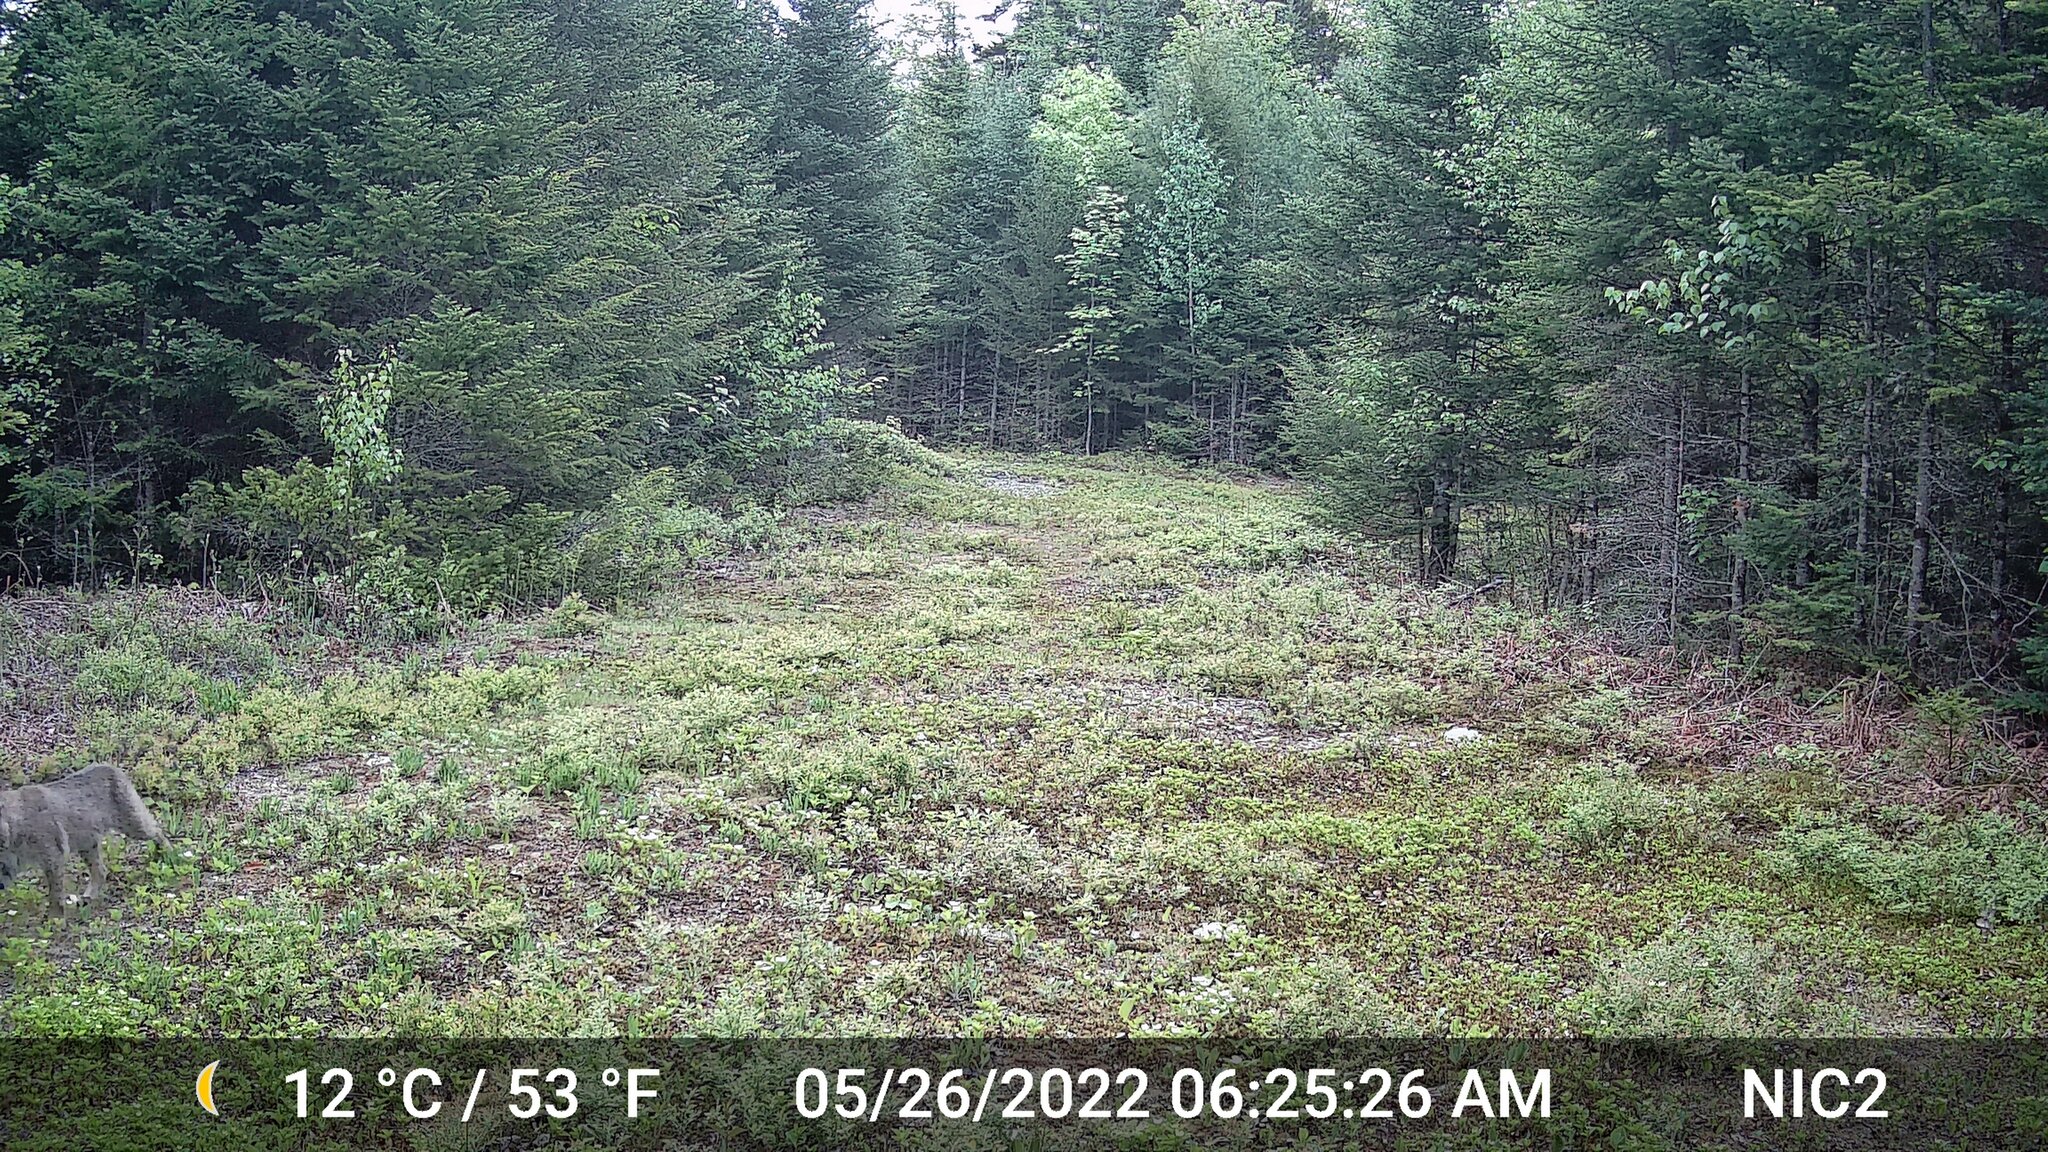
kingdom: Animalia
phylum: Chordata
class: Mammalia
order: Carnivora
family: Felidae
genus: Lynx
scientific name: Lynx rufus
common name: Bobcat
